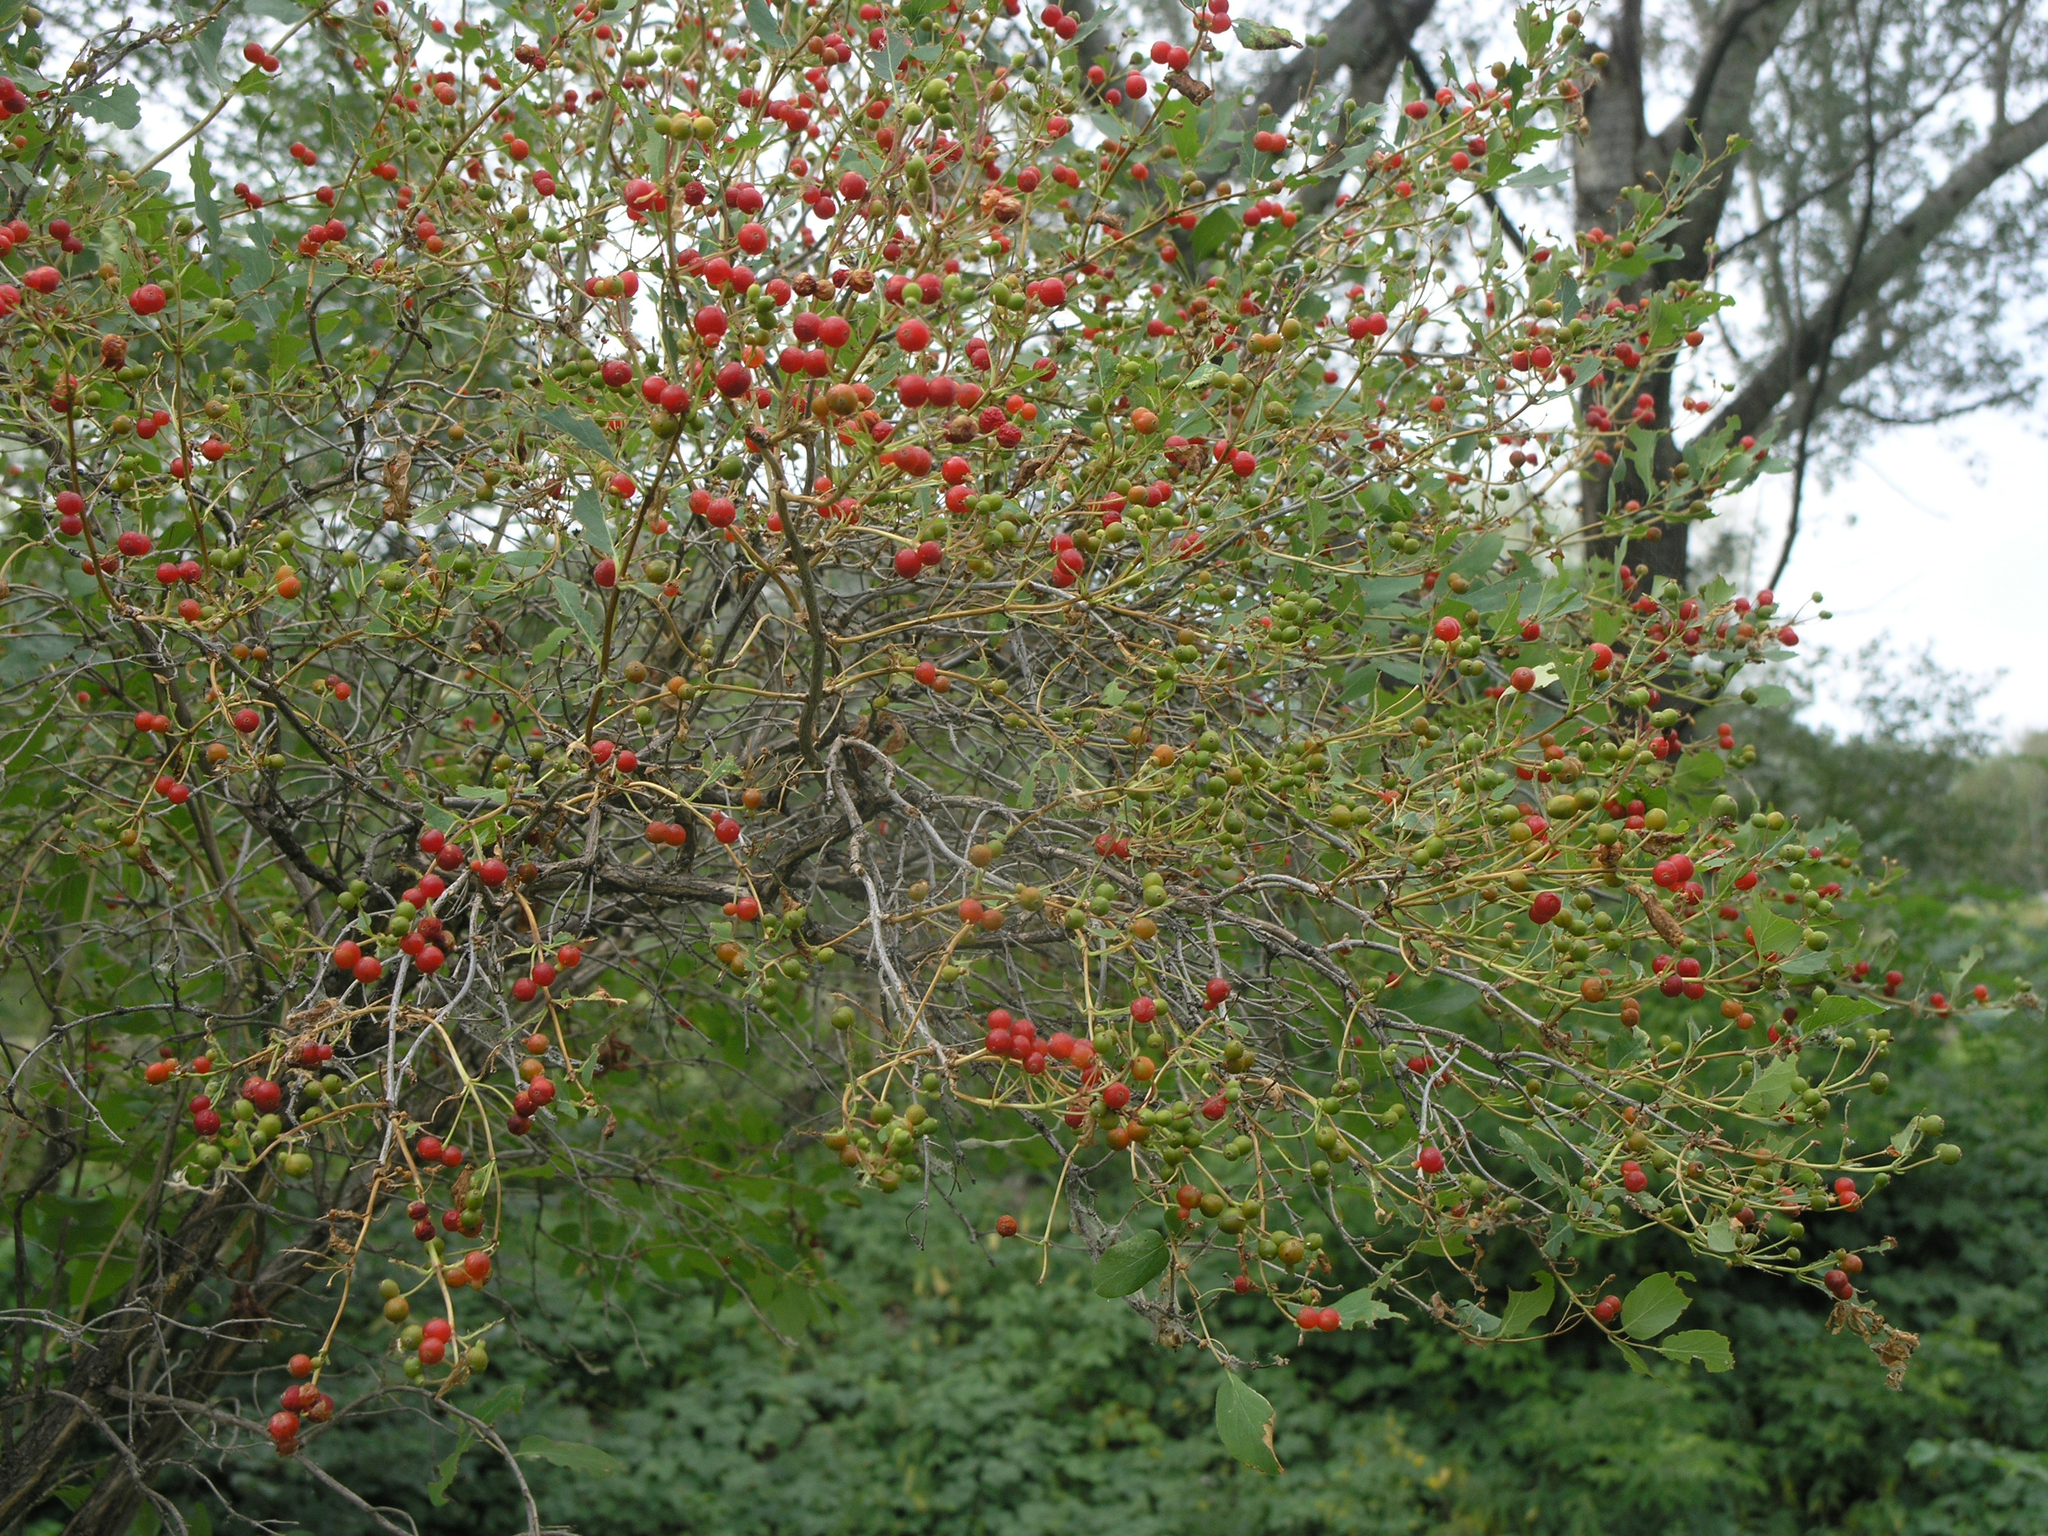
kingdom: Plantae
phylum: Tracheophyta
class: Magnoliopsida
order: Dipsacales
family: Caprifoliaceae
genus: Lonicera
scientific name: Lonicera tatarica
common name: Tatarian honeysuckle
